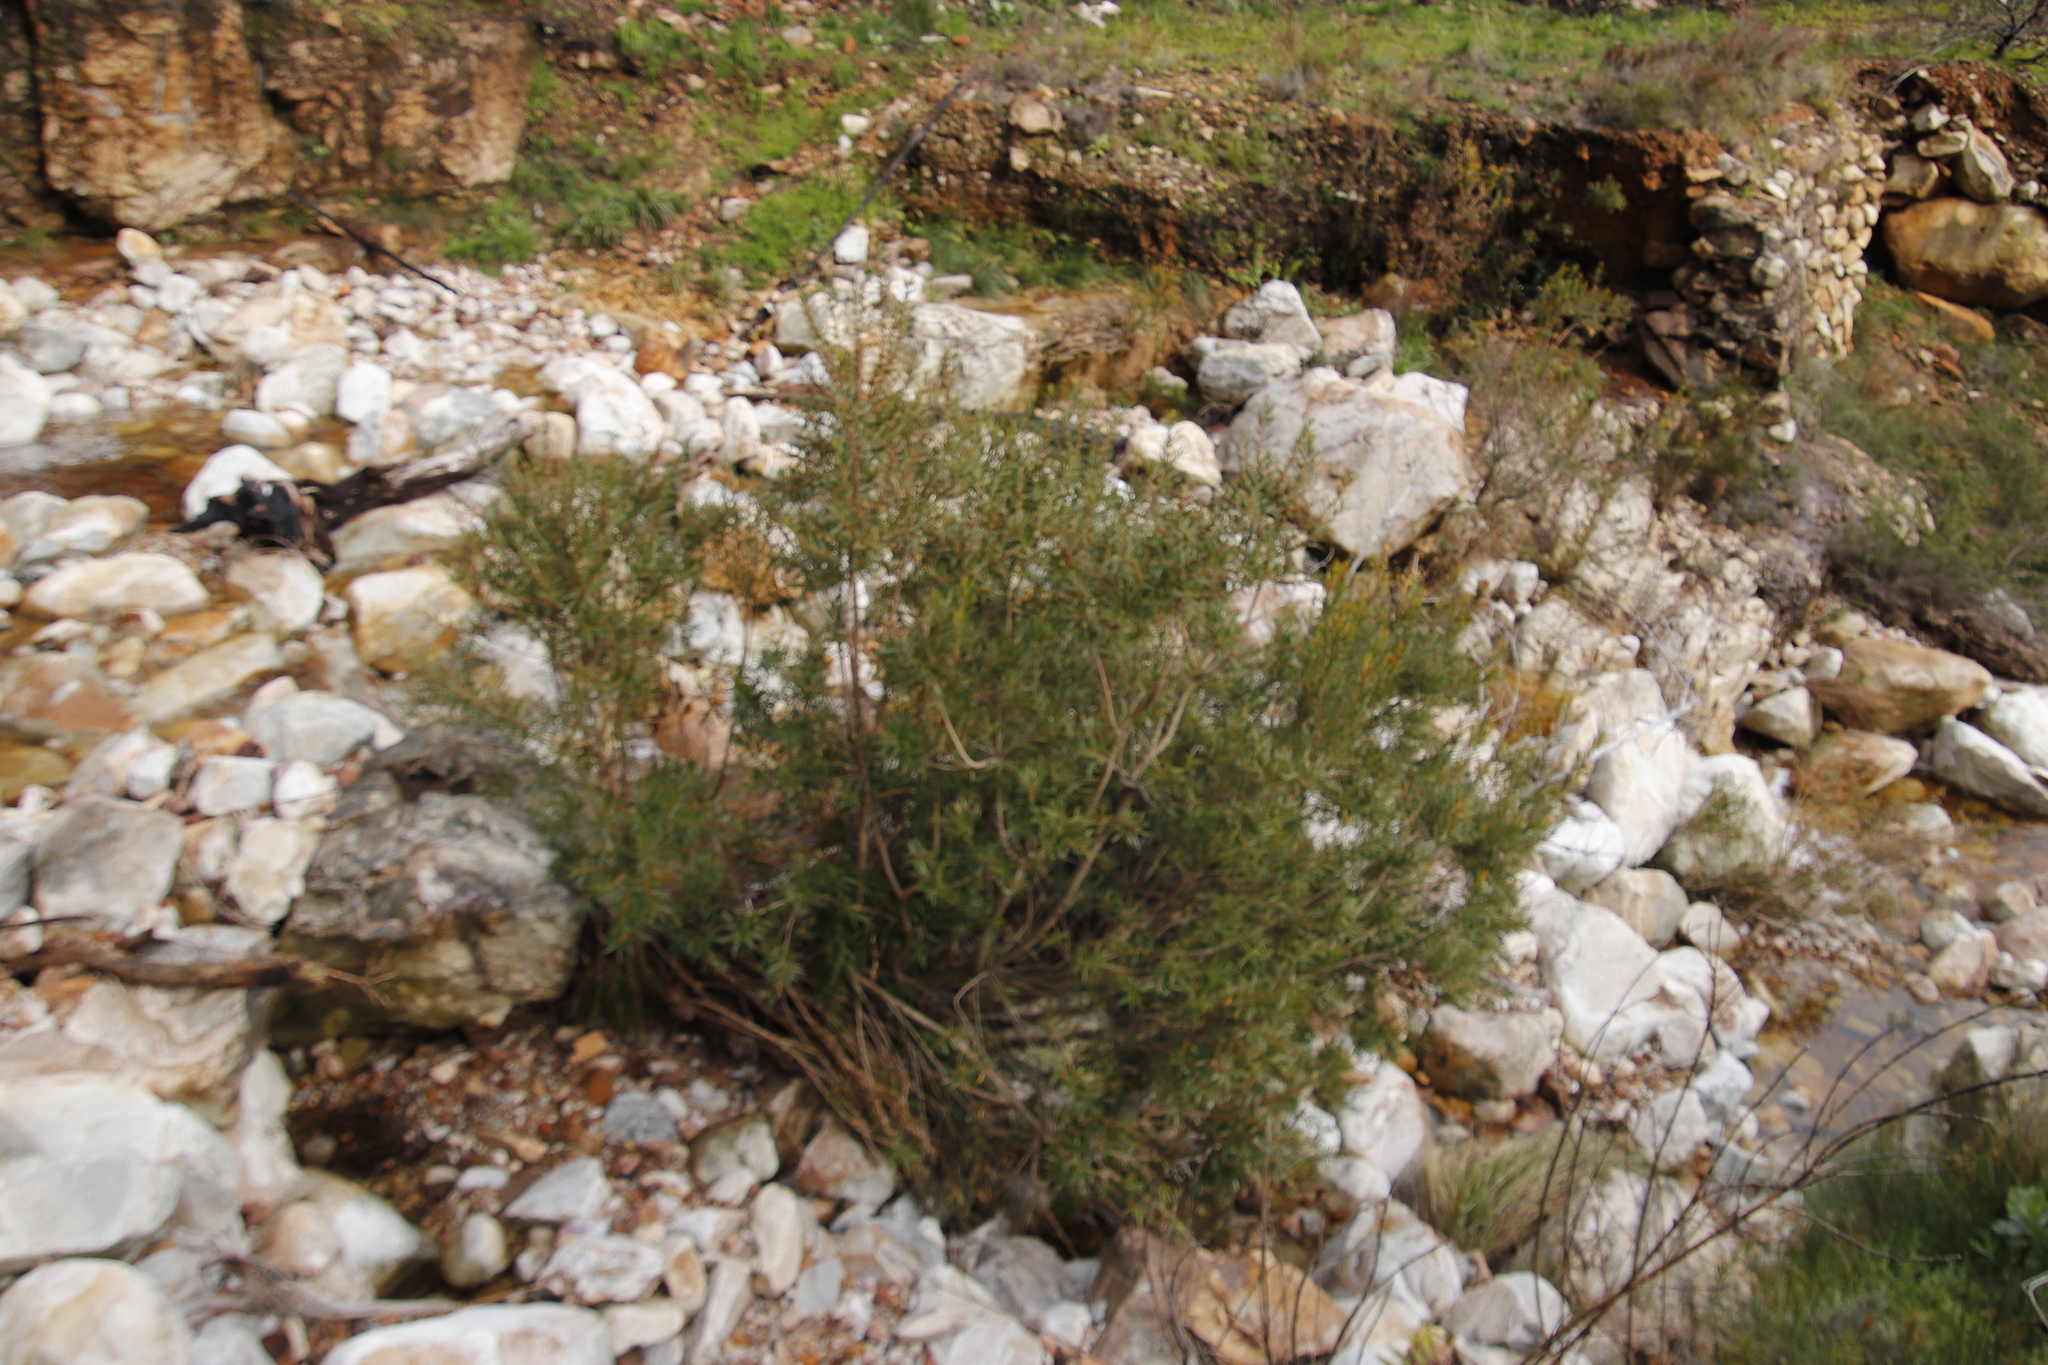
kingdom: Plantae
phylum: Tracheophyta
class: Magnoliopsida
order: Myrtales
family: Myrtaceae
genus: Callistemon
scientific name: Callistemon lanceolatus
